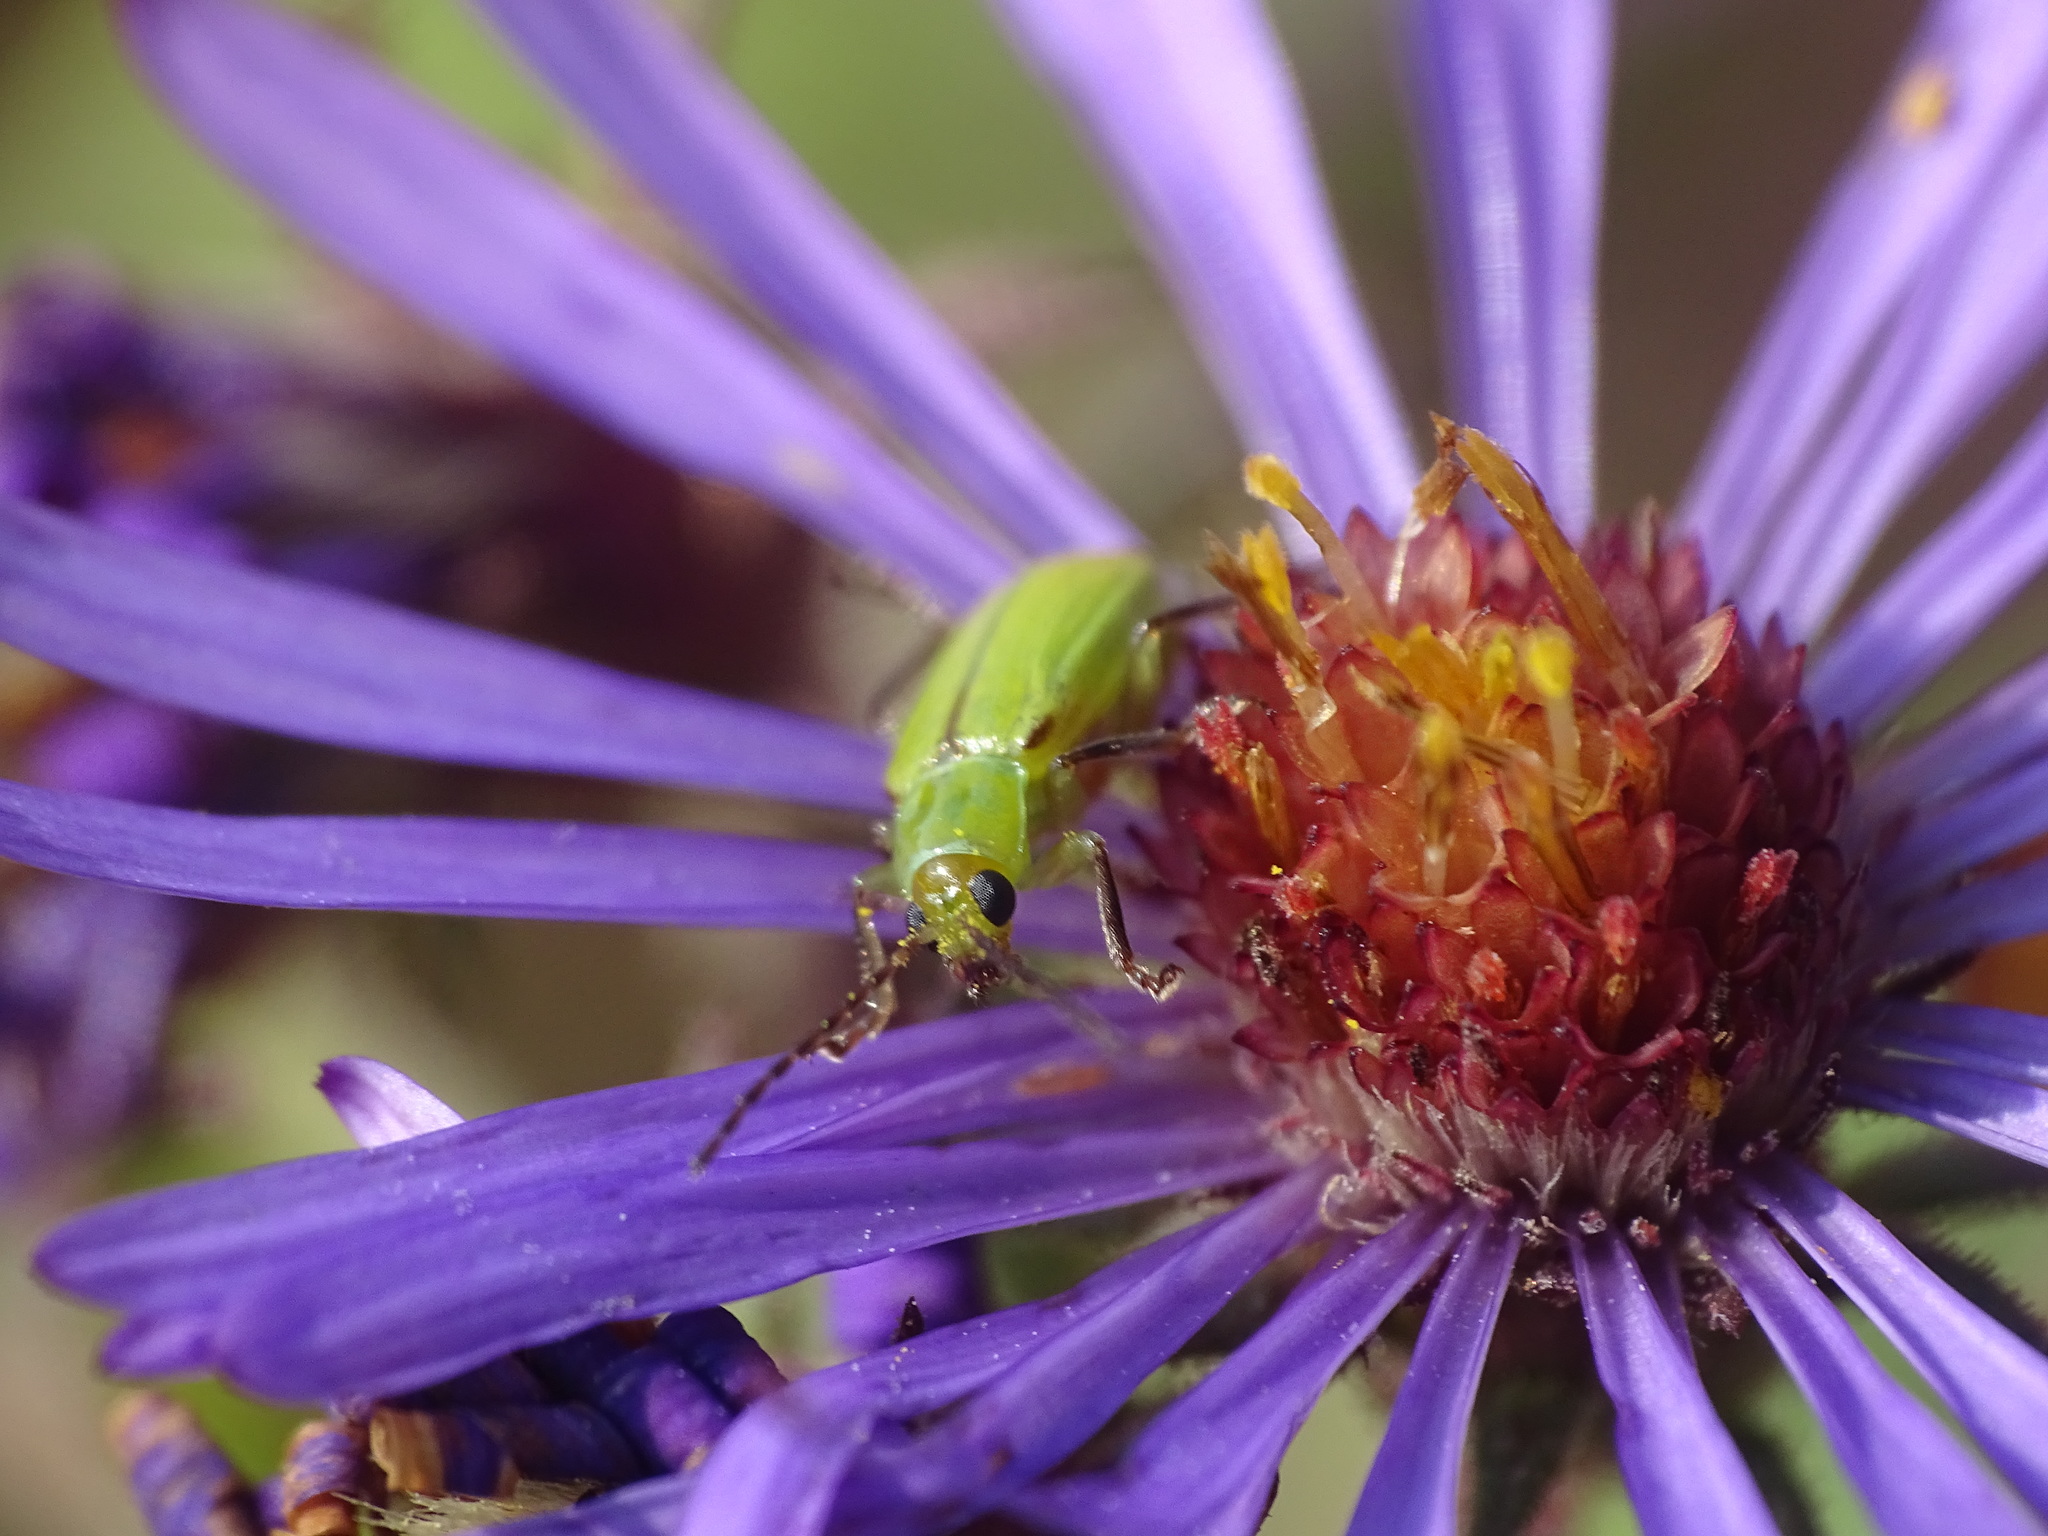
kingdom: Animalia
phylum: Arthropoda
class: Insecta
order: Coleoptera
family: Chrysomelidae
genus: Diabrotica
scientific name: Diabrotica barberi
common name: Northern corn rootworm
